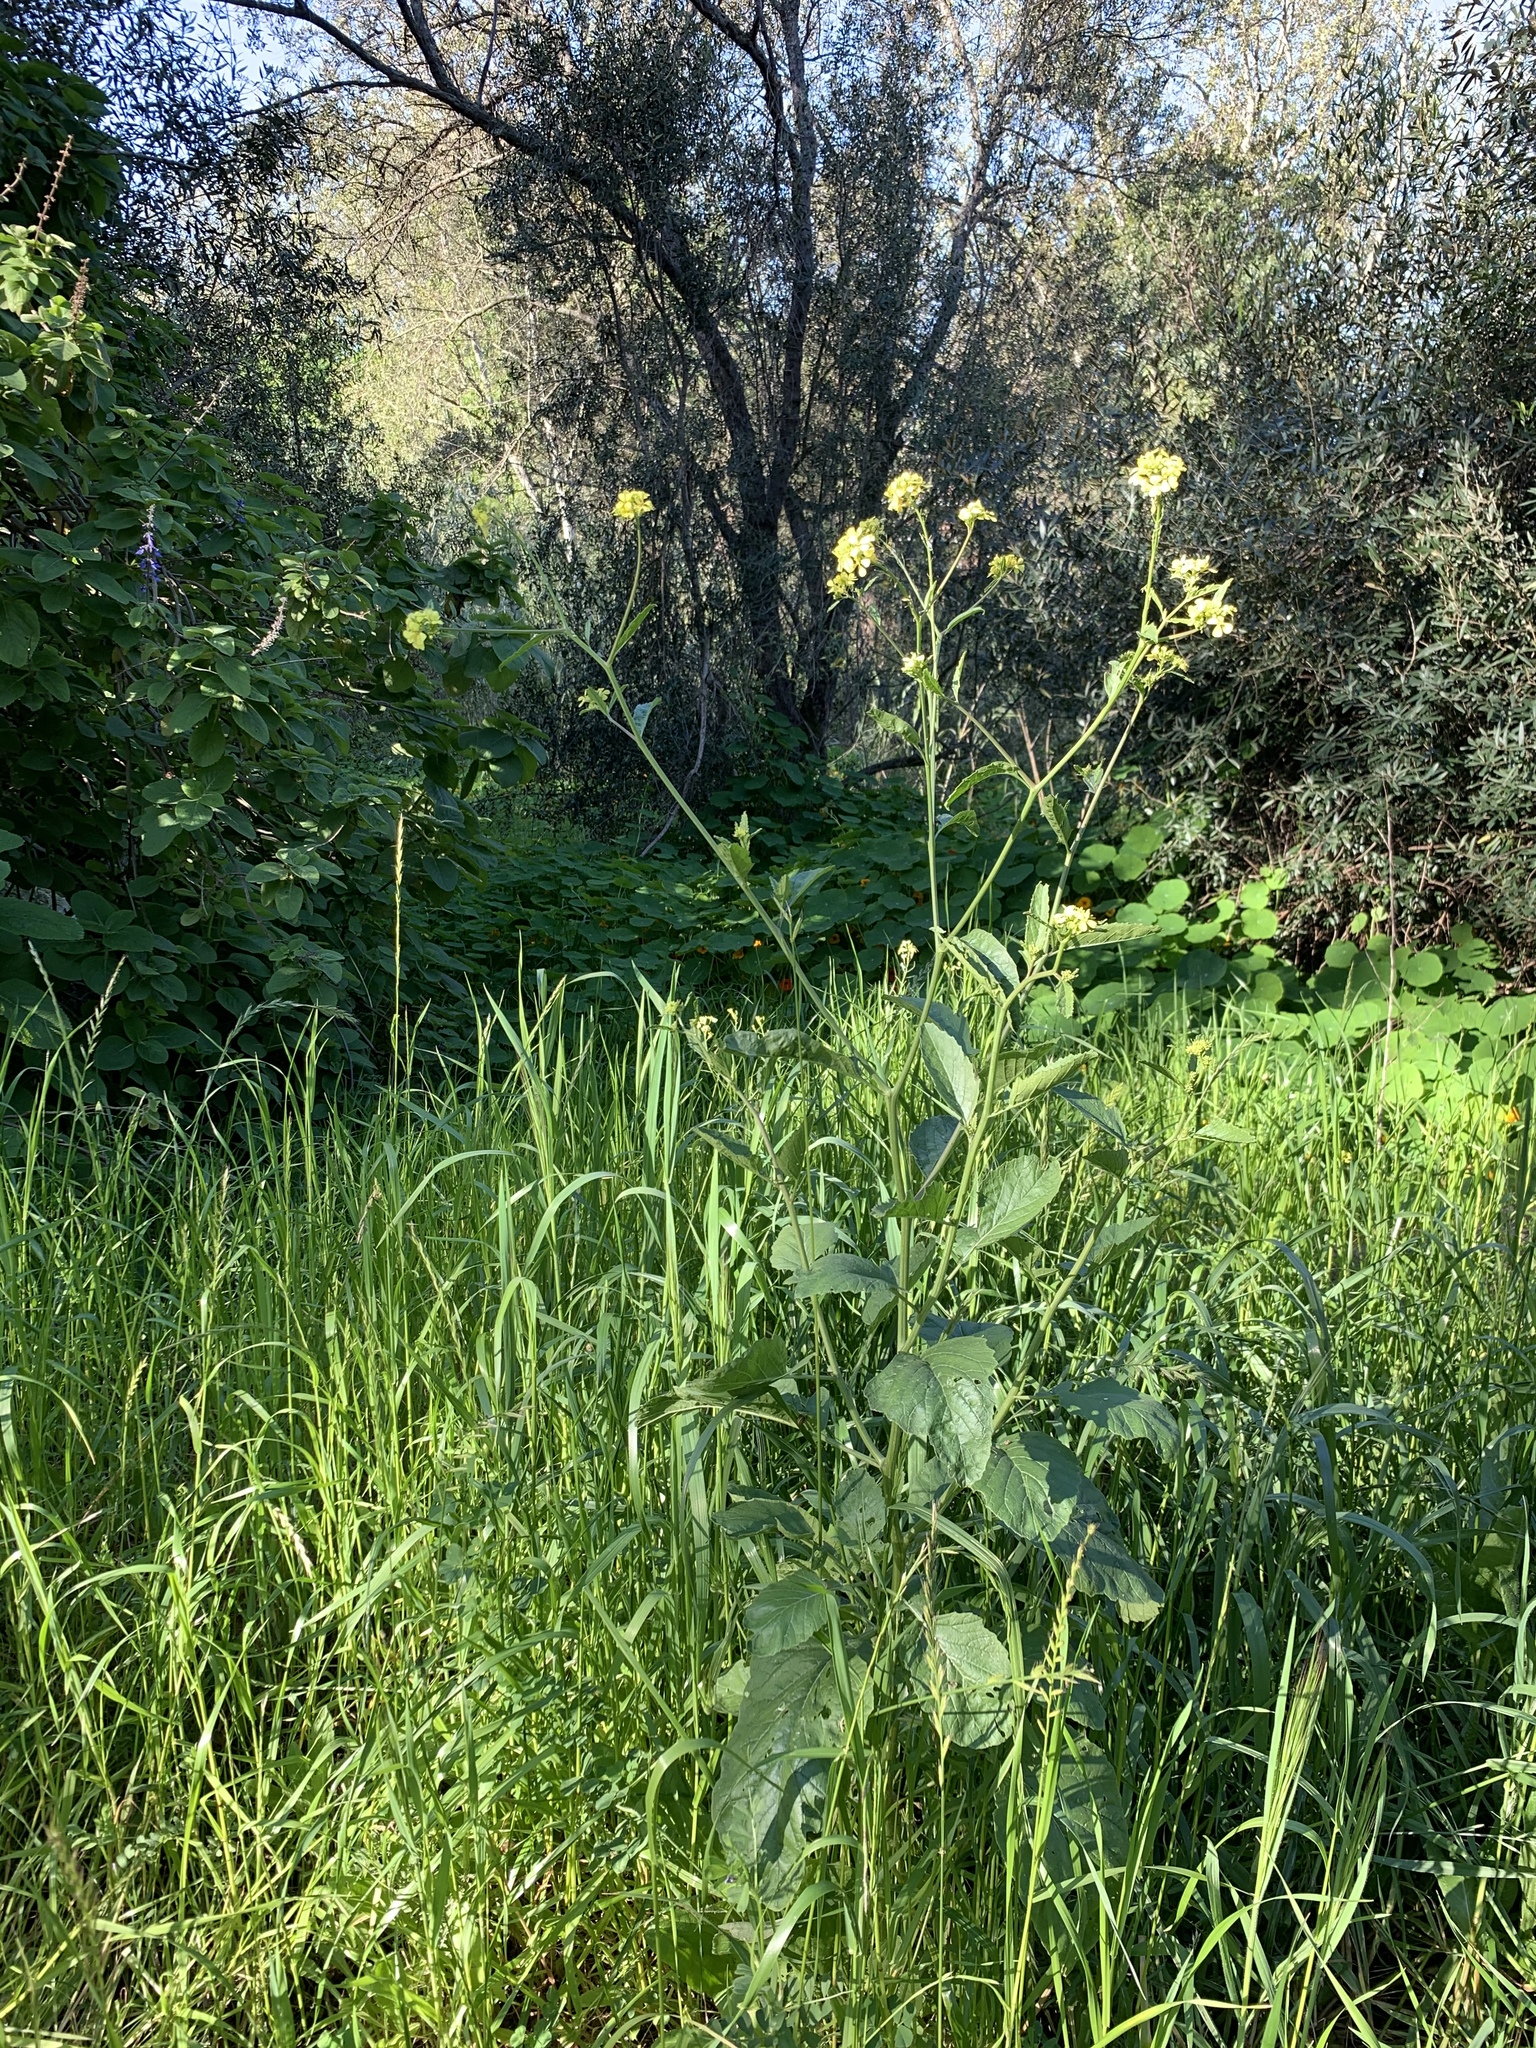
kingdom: Plantae
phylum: Tracheophyta
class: Magnoliopsida
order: Brassicales
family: Brassicaceae
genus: Rapistrum
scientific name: Rapistrum rugosum
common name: Annual bastardcabbage
